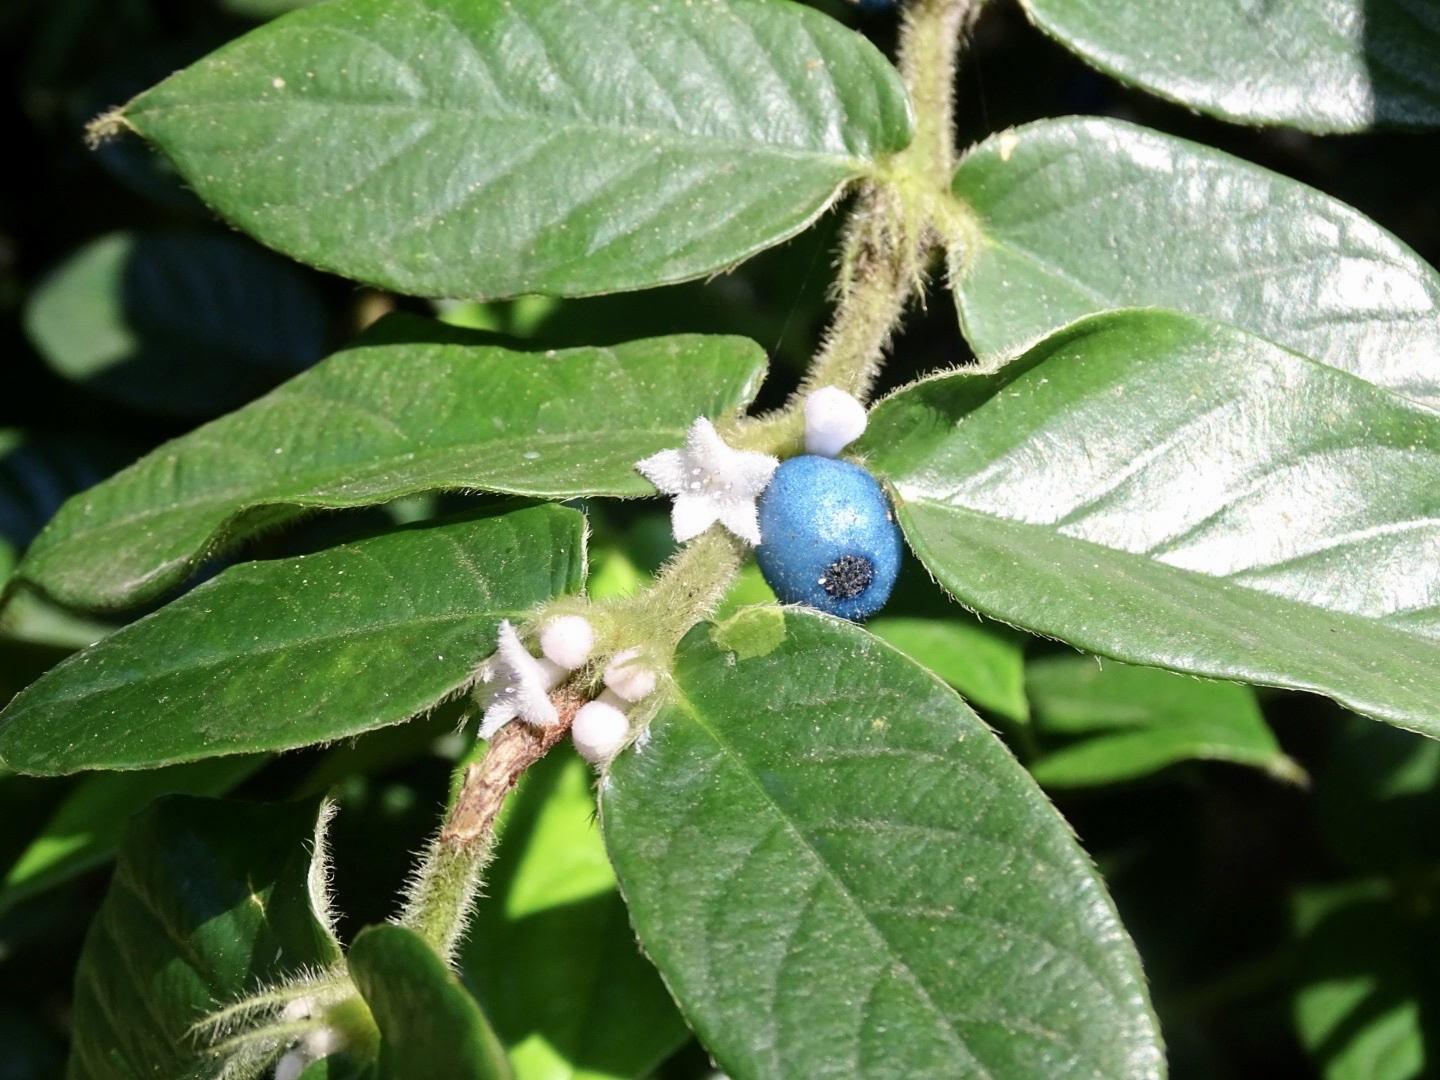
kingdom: Plantae
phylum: Tracheophyta
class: Magnoliopsida
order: Gentianales
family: Rubiaceae
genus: Lasianthus
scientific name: Lasianthus attenuatus
